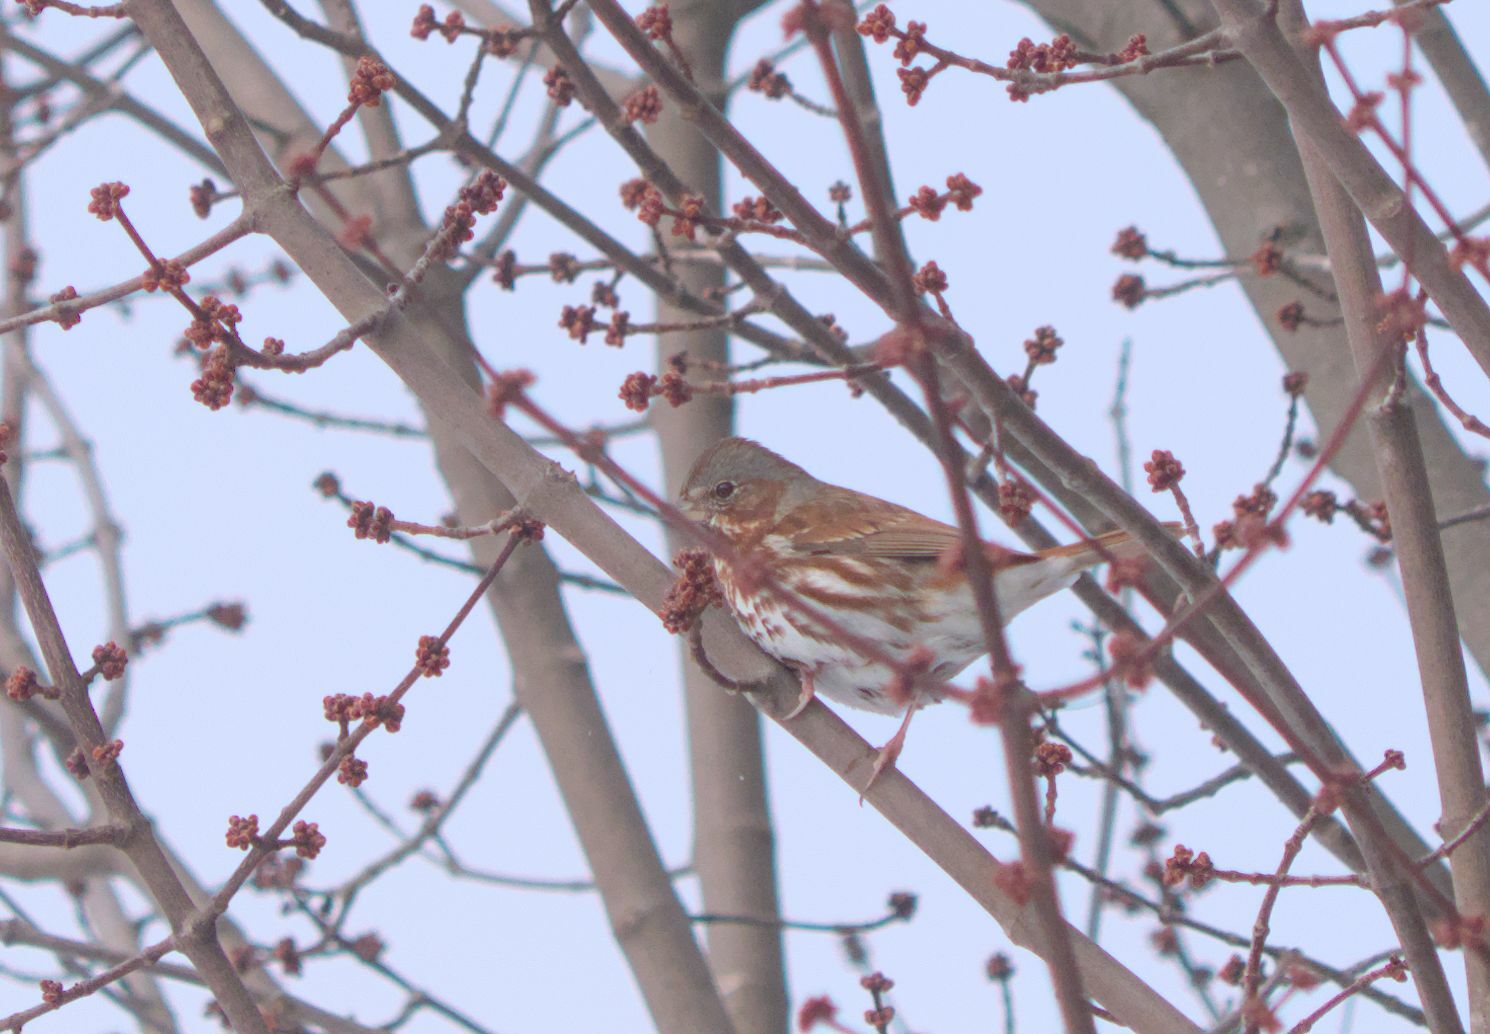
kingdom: Animalia
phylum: Chordata
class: Aves
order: Passeriformes
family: Passerellidae
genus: Passerella
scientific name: Passerella iliaca
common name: Fox sparrow
